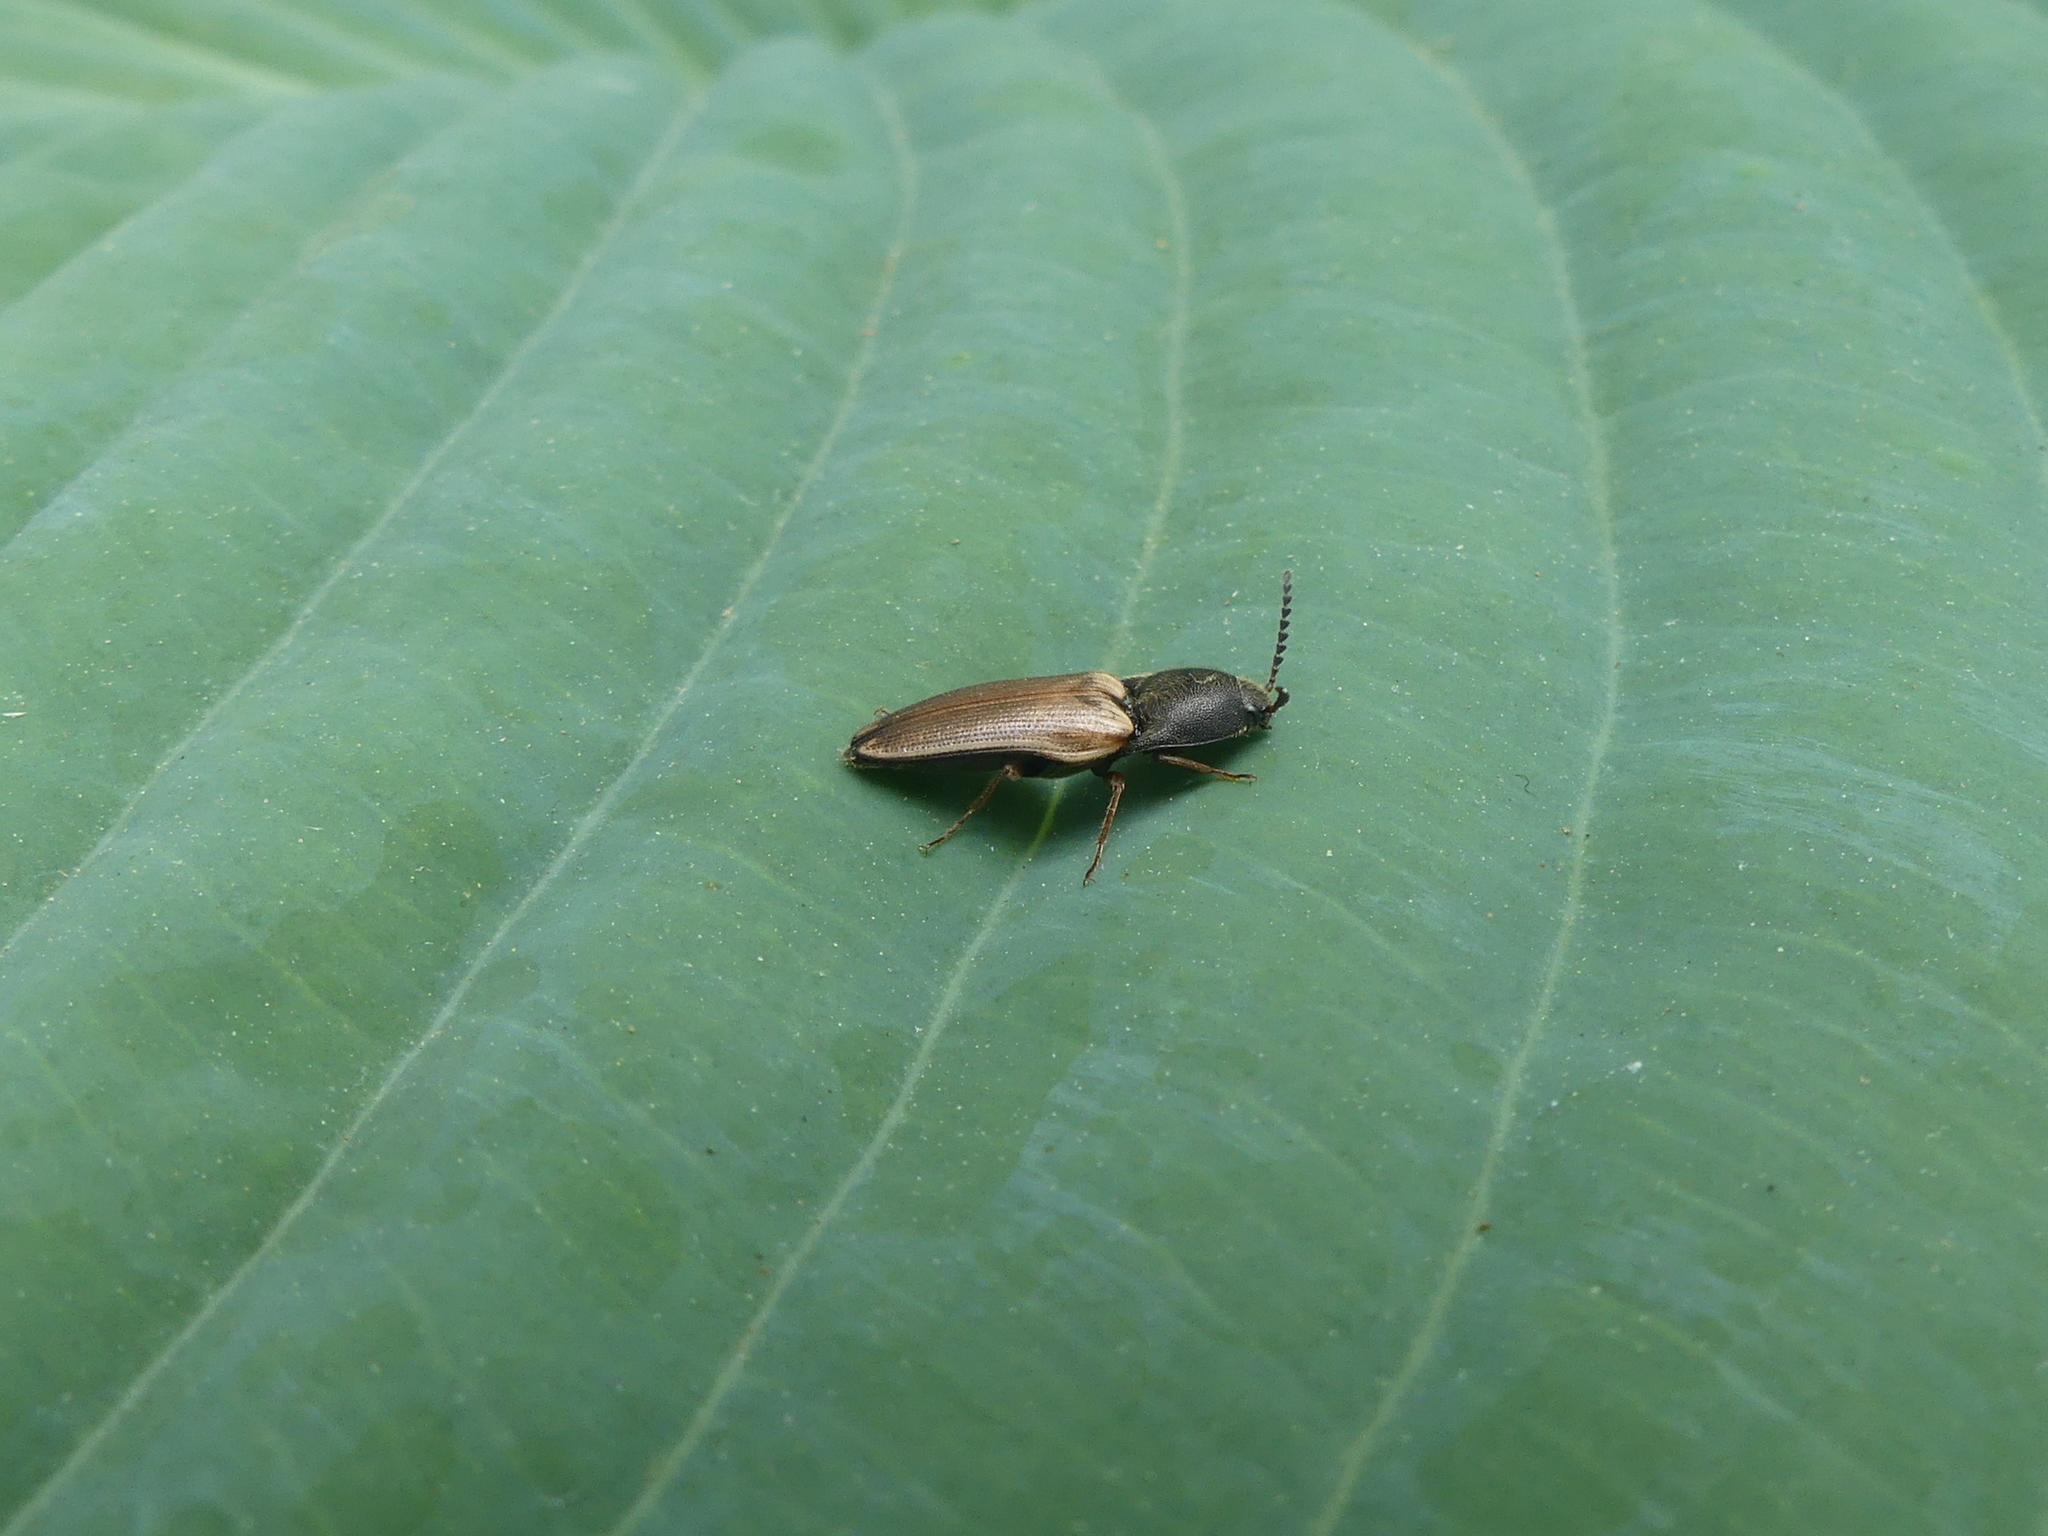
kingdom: Animalia
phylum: Arthropoda
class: Insecta
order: Coleoptera
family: Elateridae
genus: Ampedus
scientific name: Ampedus nigricollis
